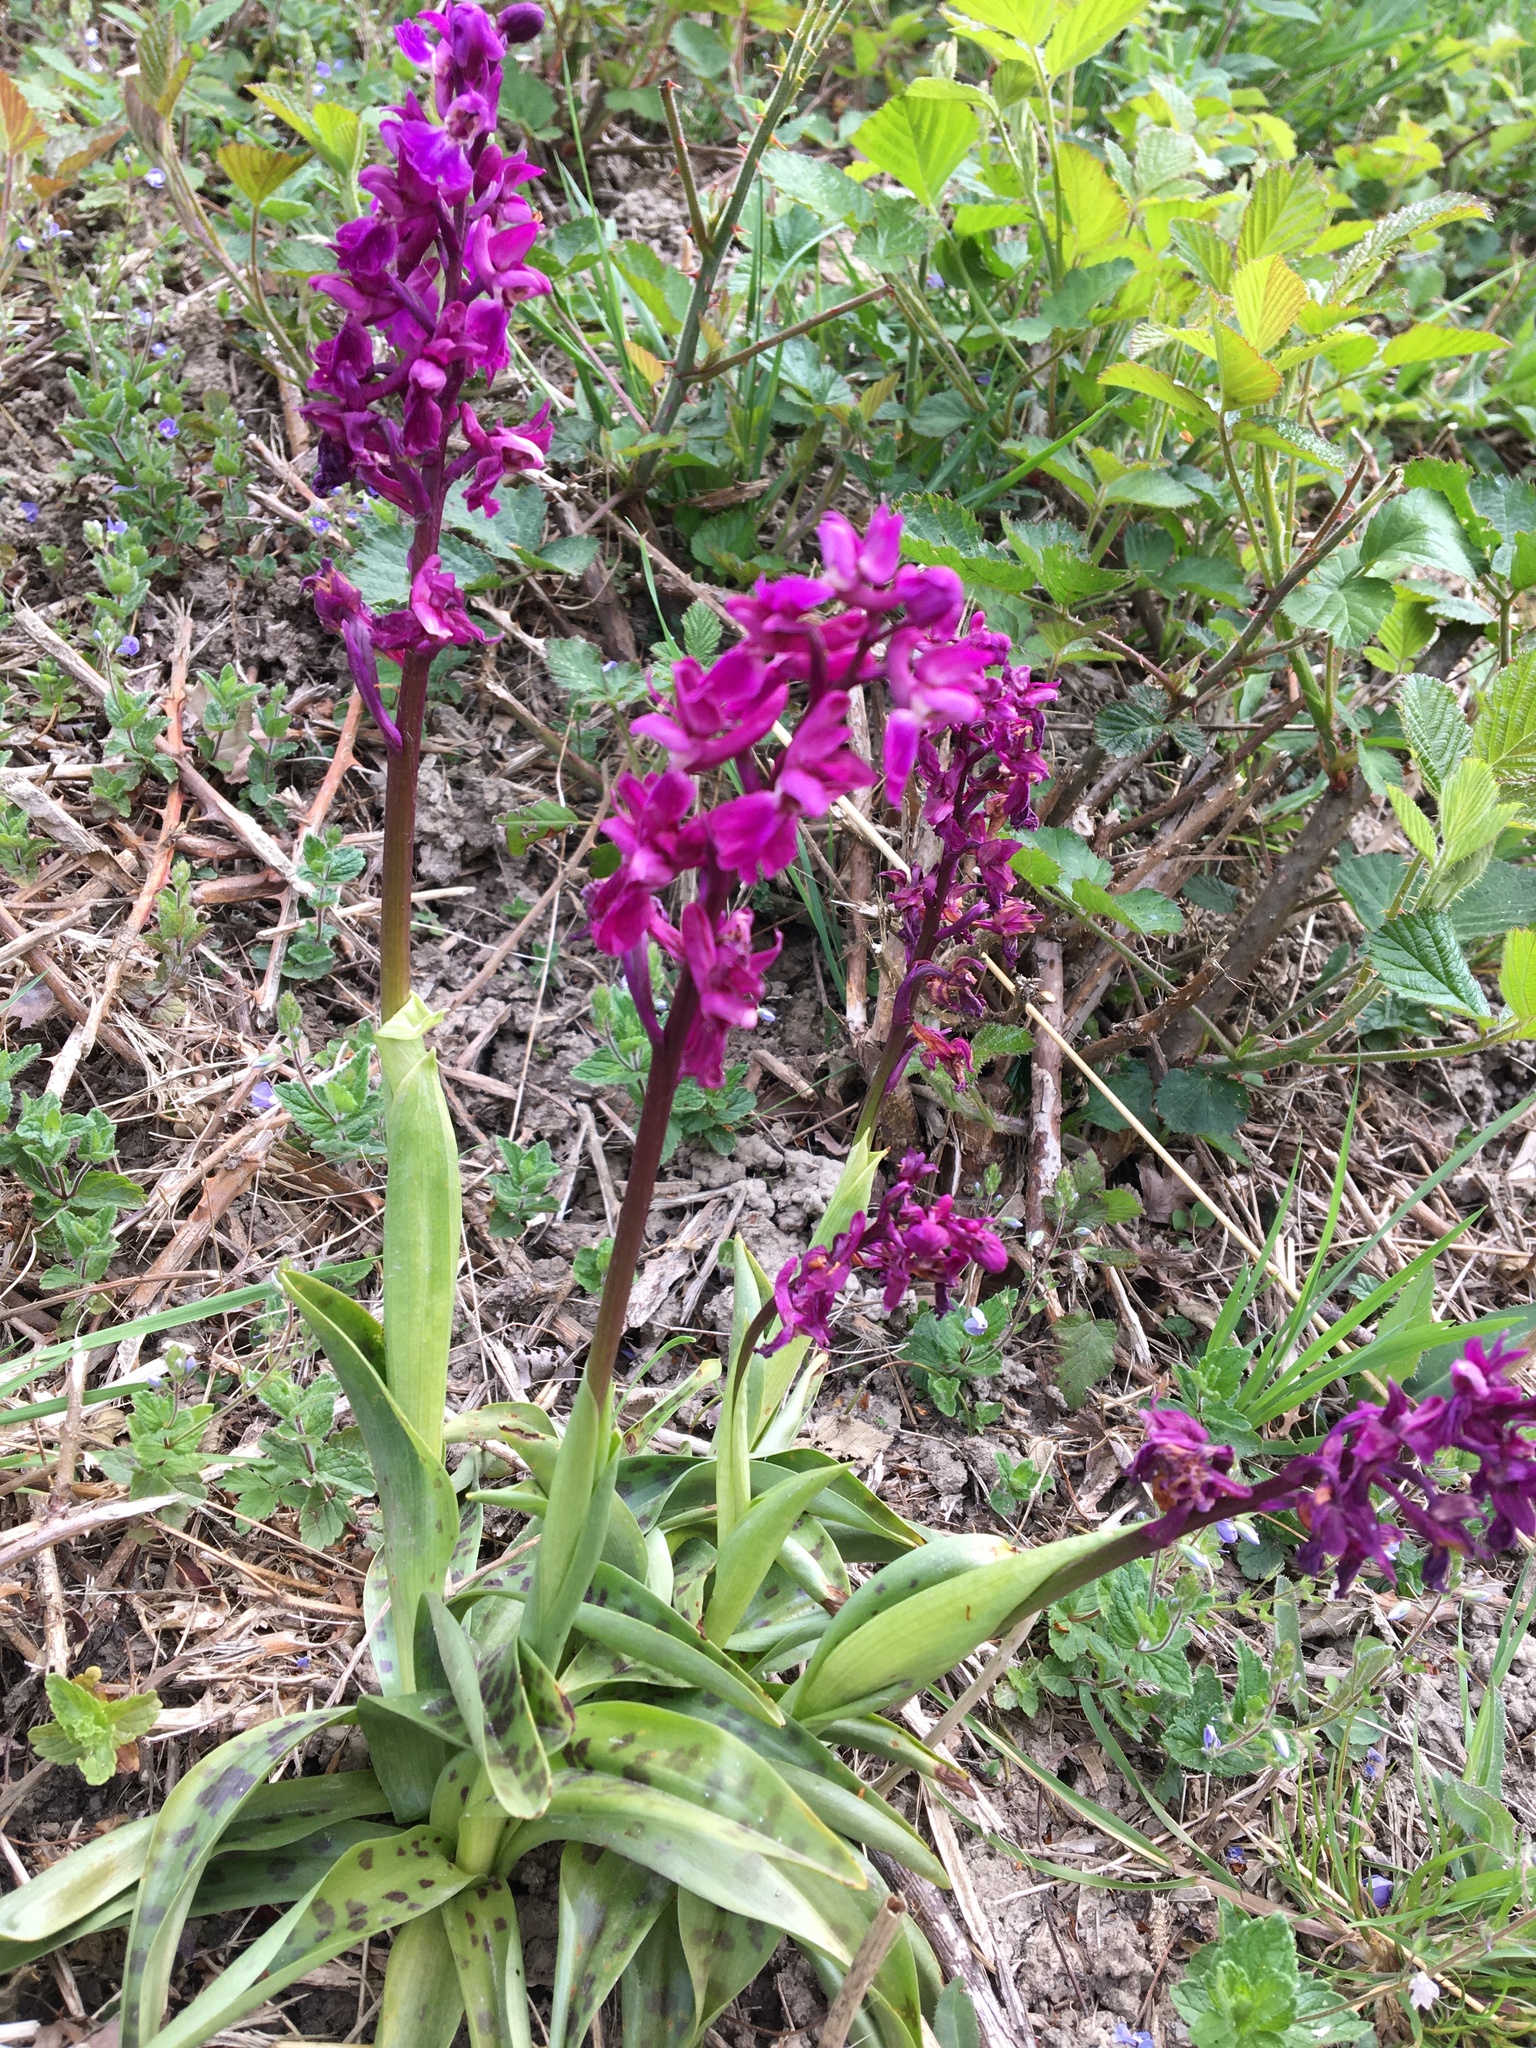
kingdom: Plantae
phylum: Tracheophyta
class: Liliopsida
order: Asparagales
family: Orchidaceae
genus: Orchis
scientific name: Orchis mascula
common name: Early-purple orchid
